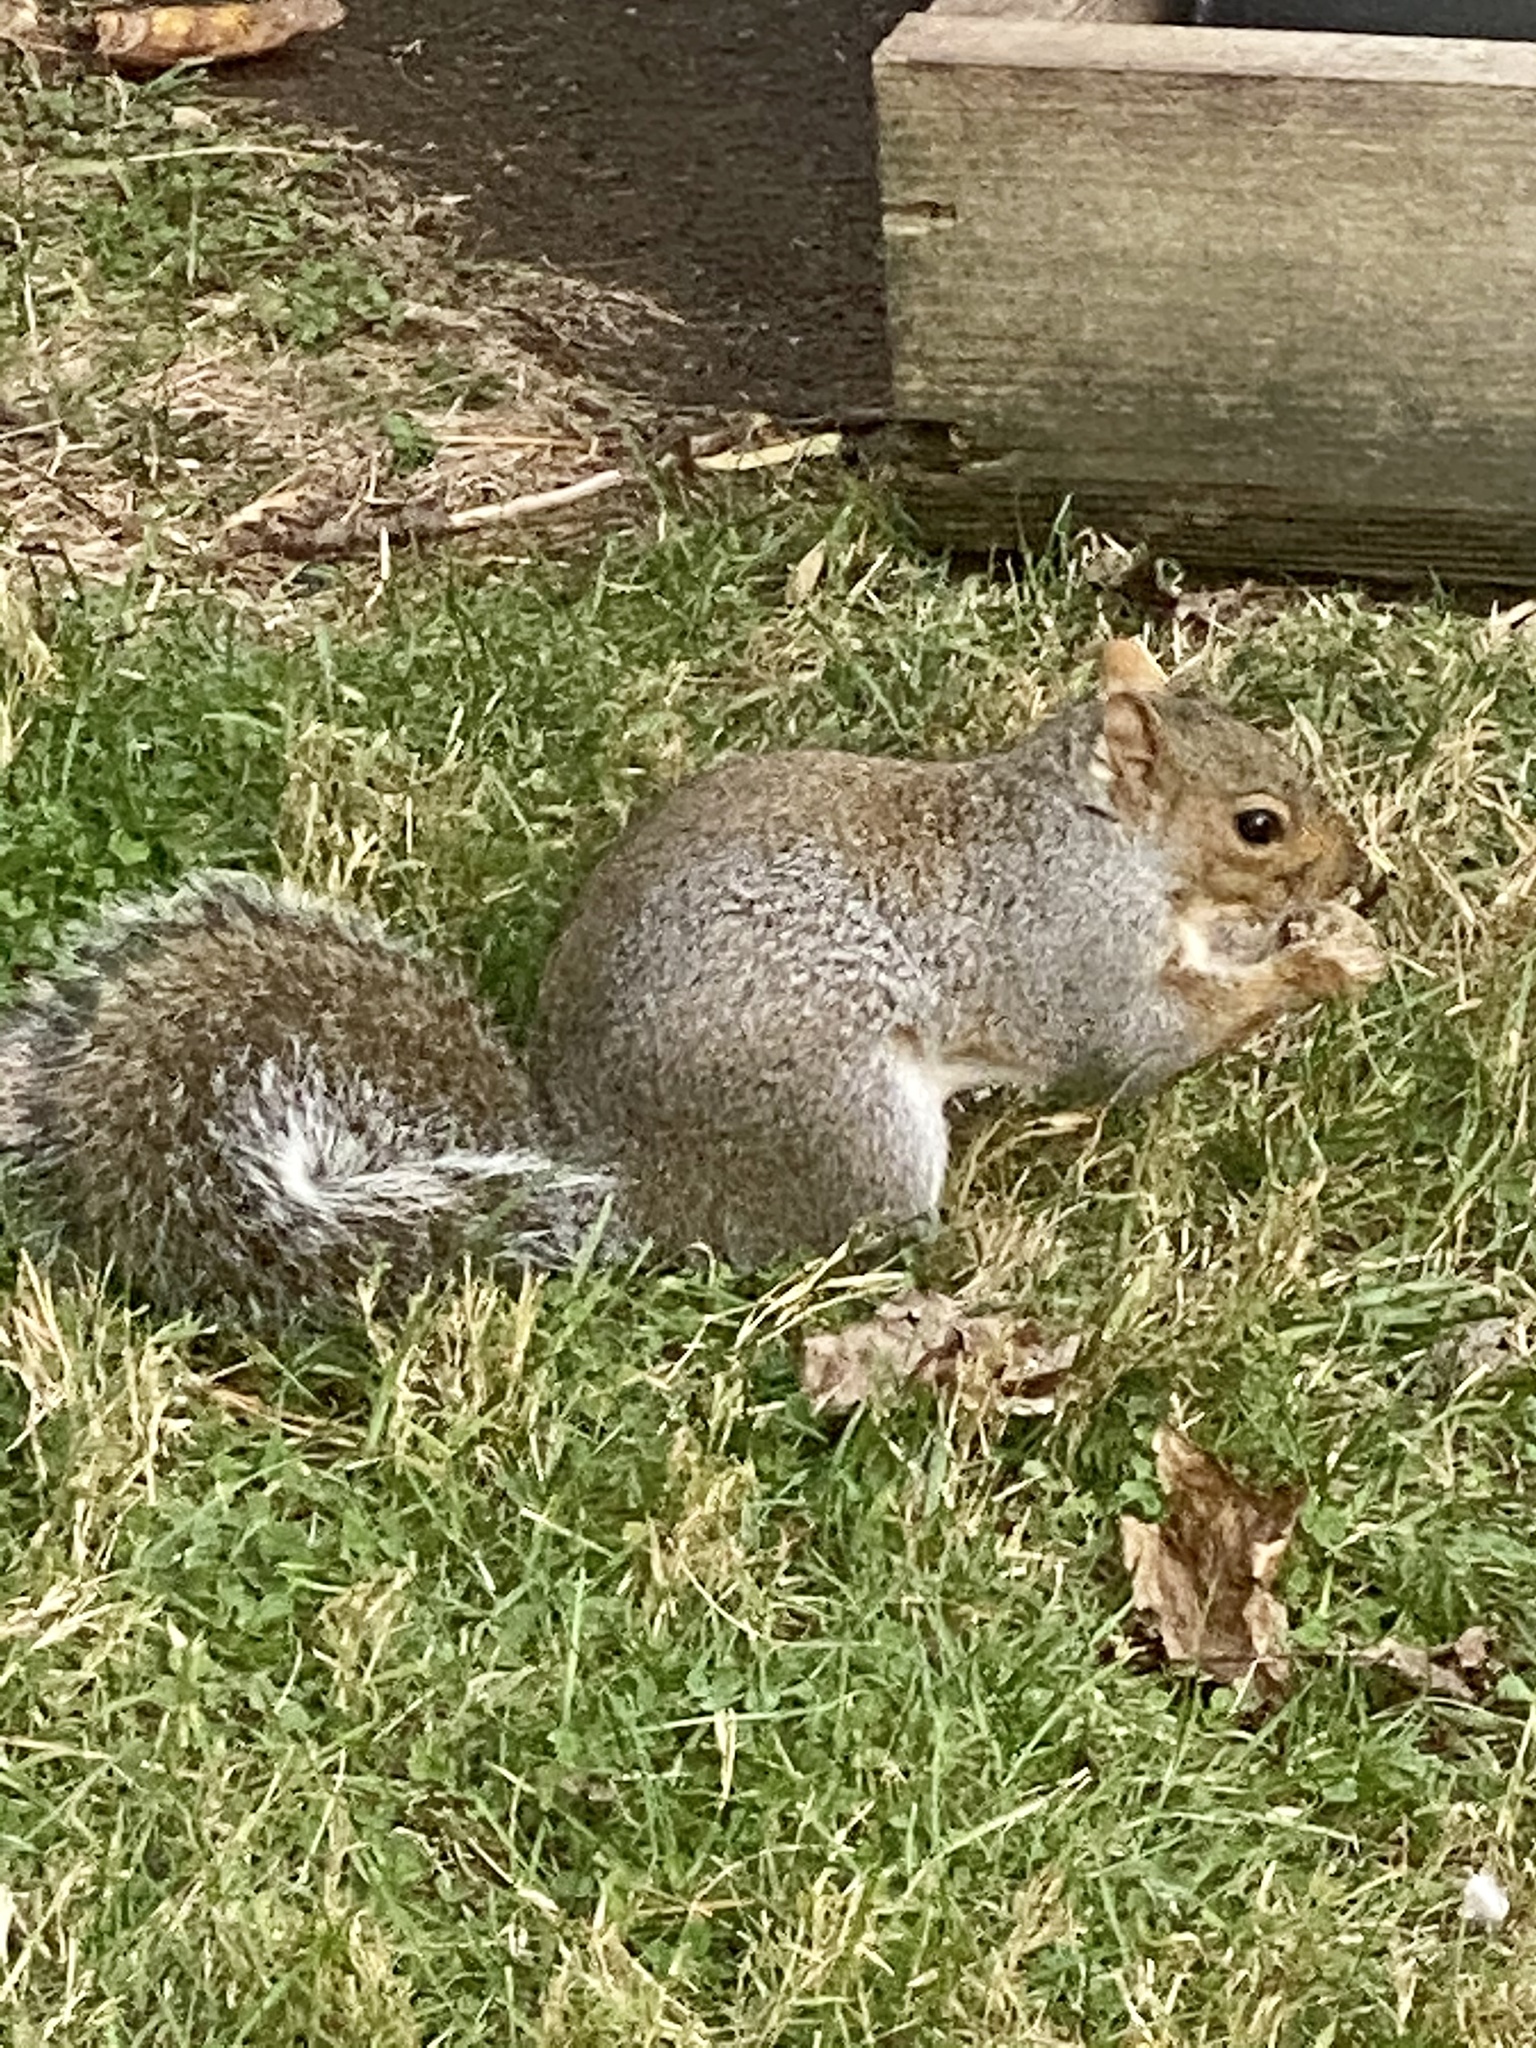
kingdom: Animalia
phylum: Chordata
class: Mammalia
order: Rodentia
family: Sciuridae
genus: Sciurus
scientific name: Sciurus carolinensis
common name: Eastern gray squirrel
